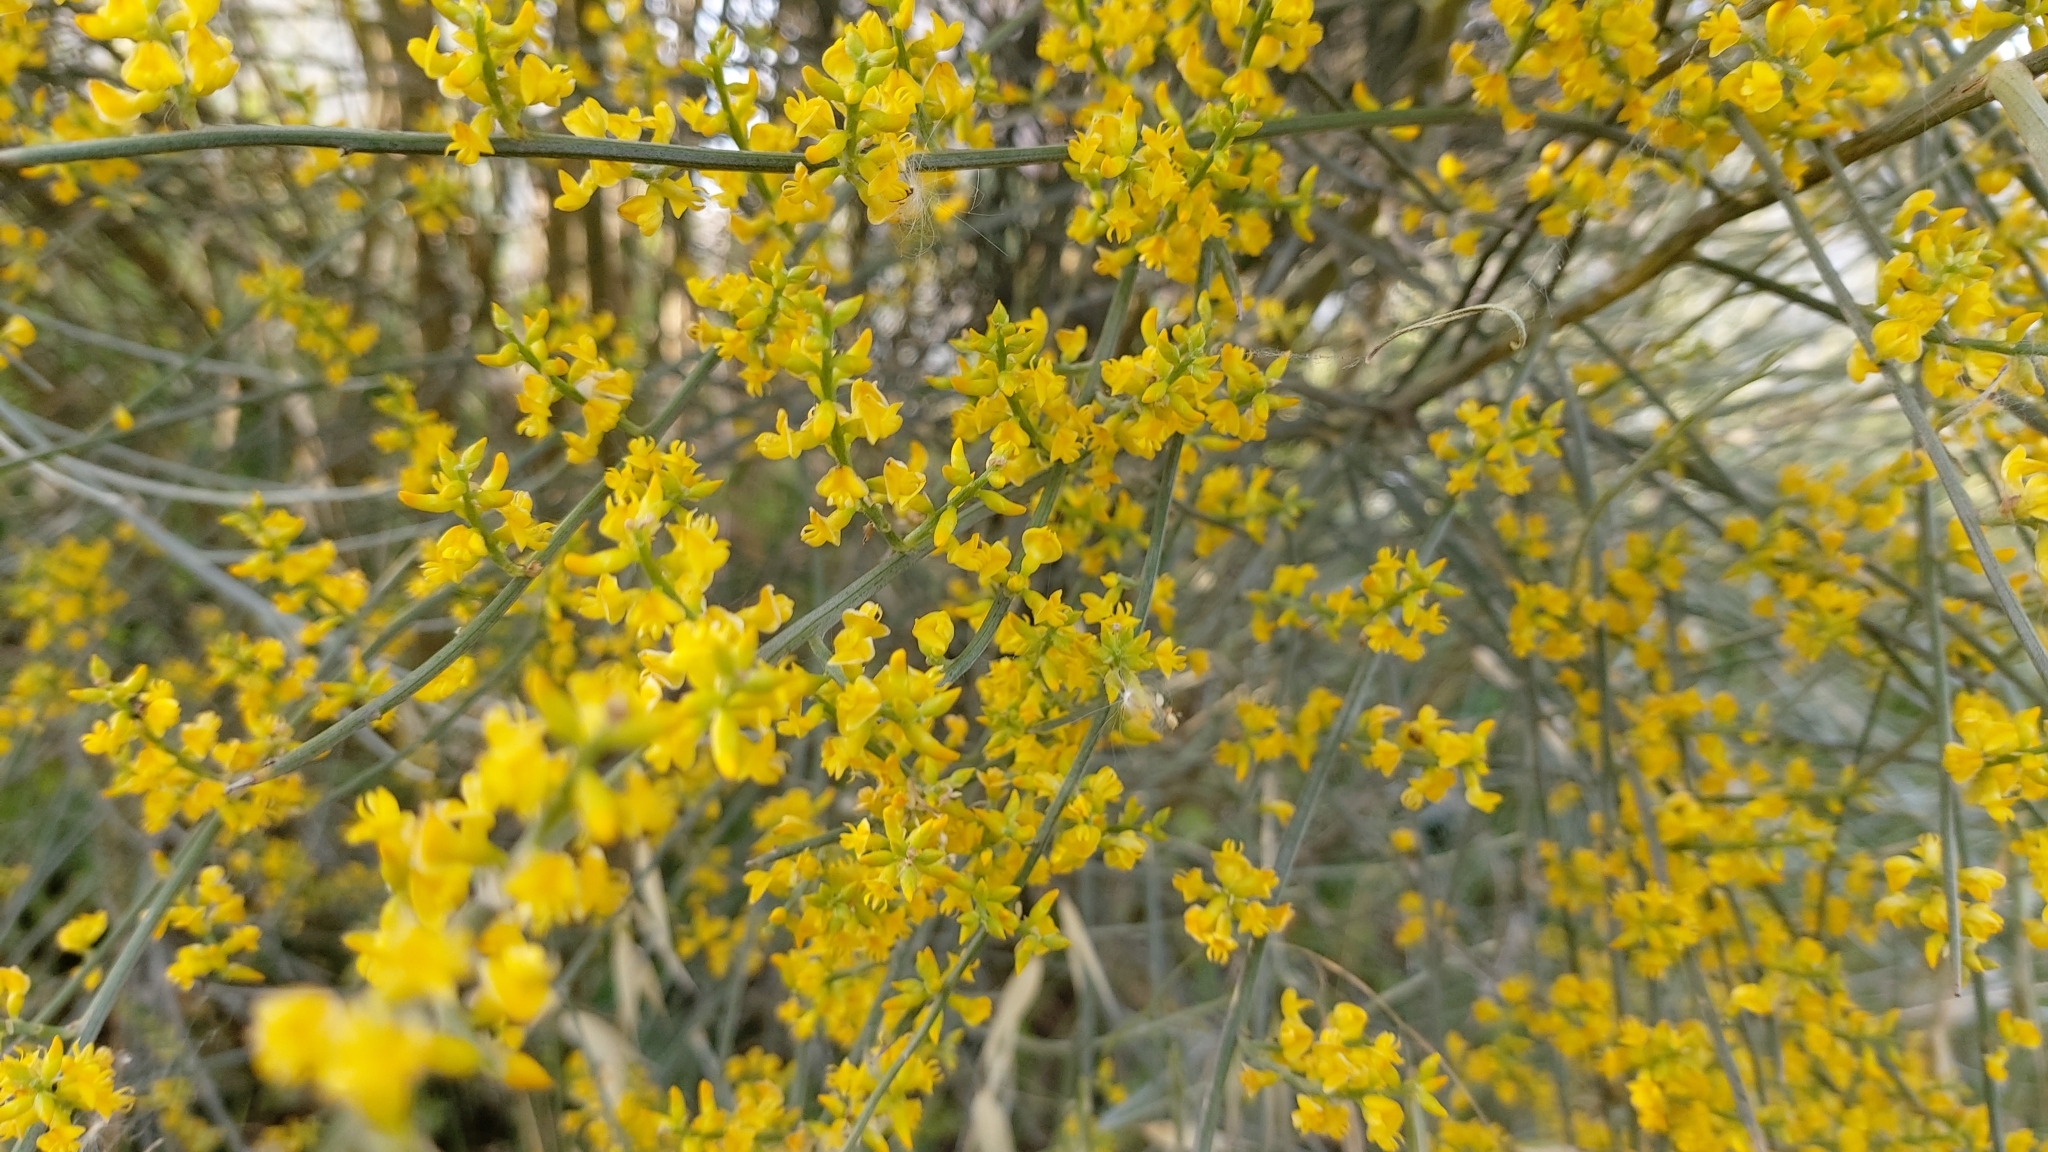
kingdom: Plantae
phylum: Tracheophyta
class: Magnoliopsida
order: Fabales
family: Fabaceae
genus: Retama
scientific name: Retama sphaerocarpa
